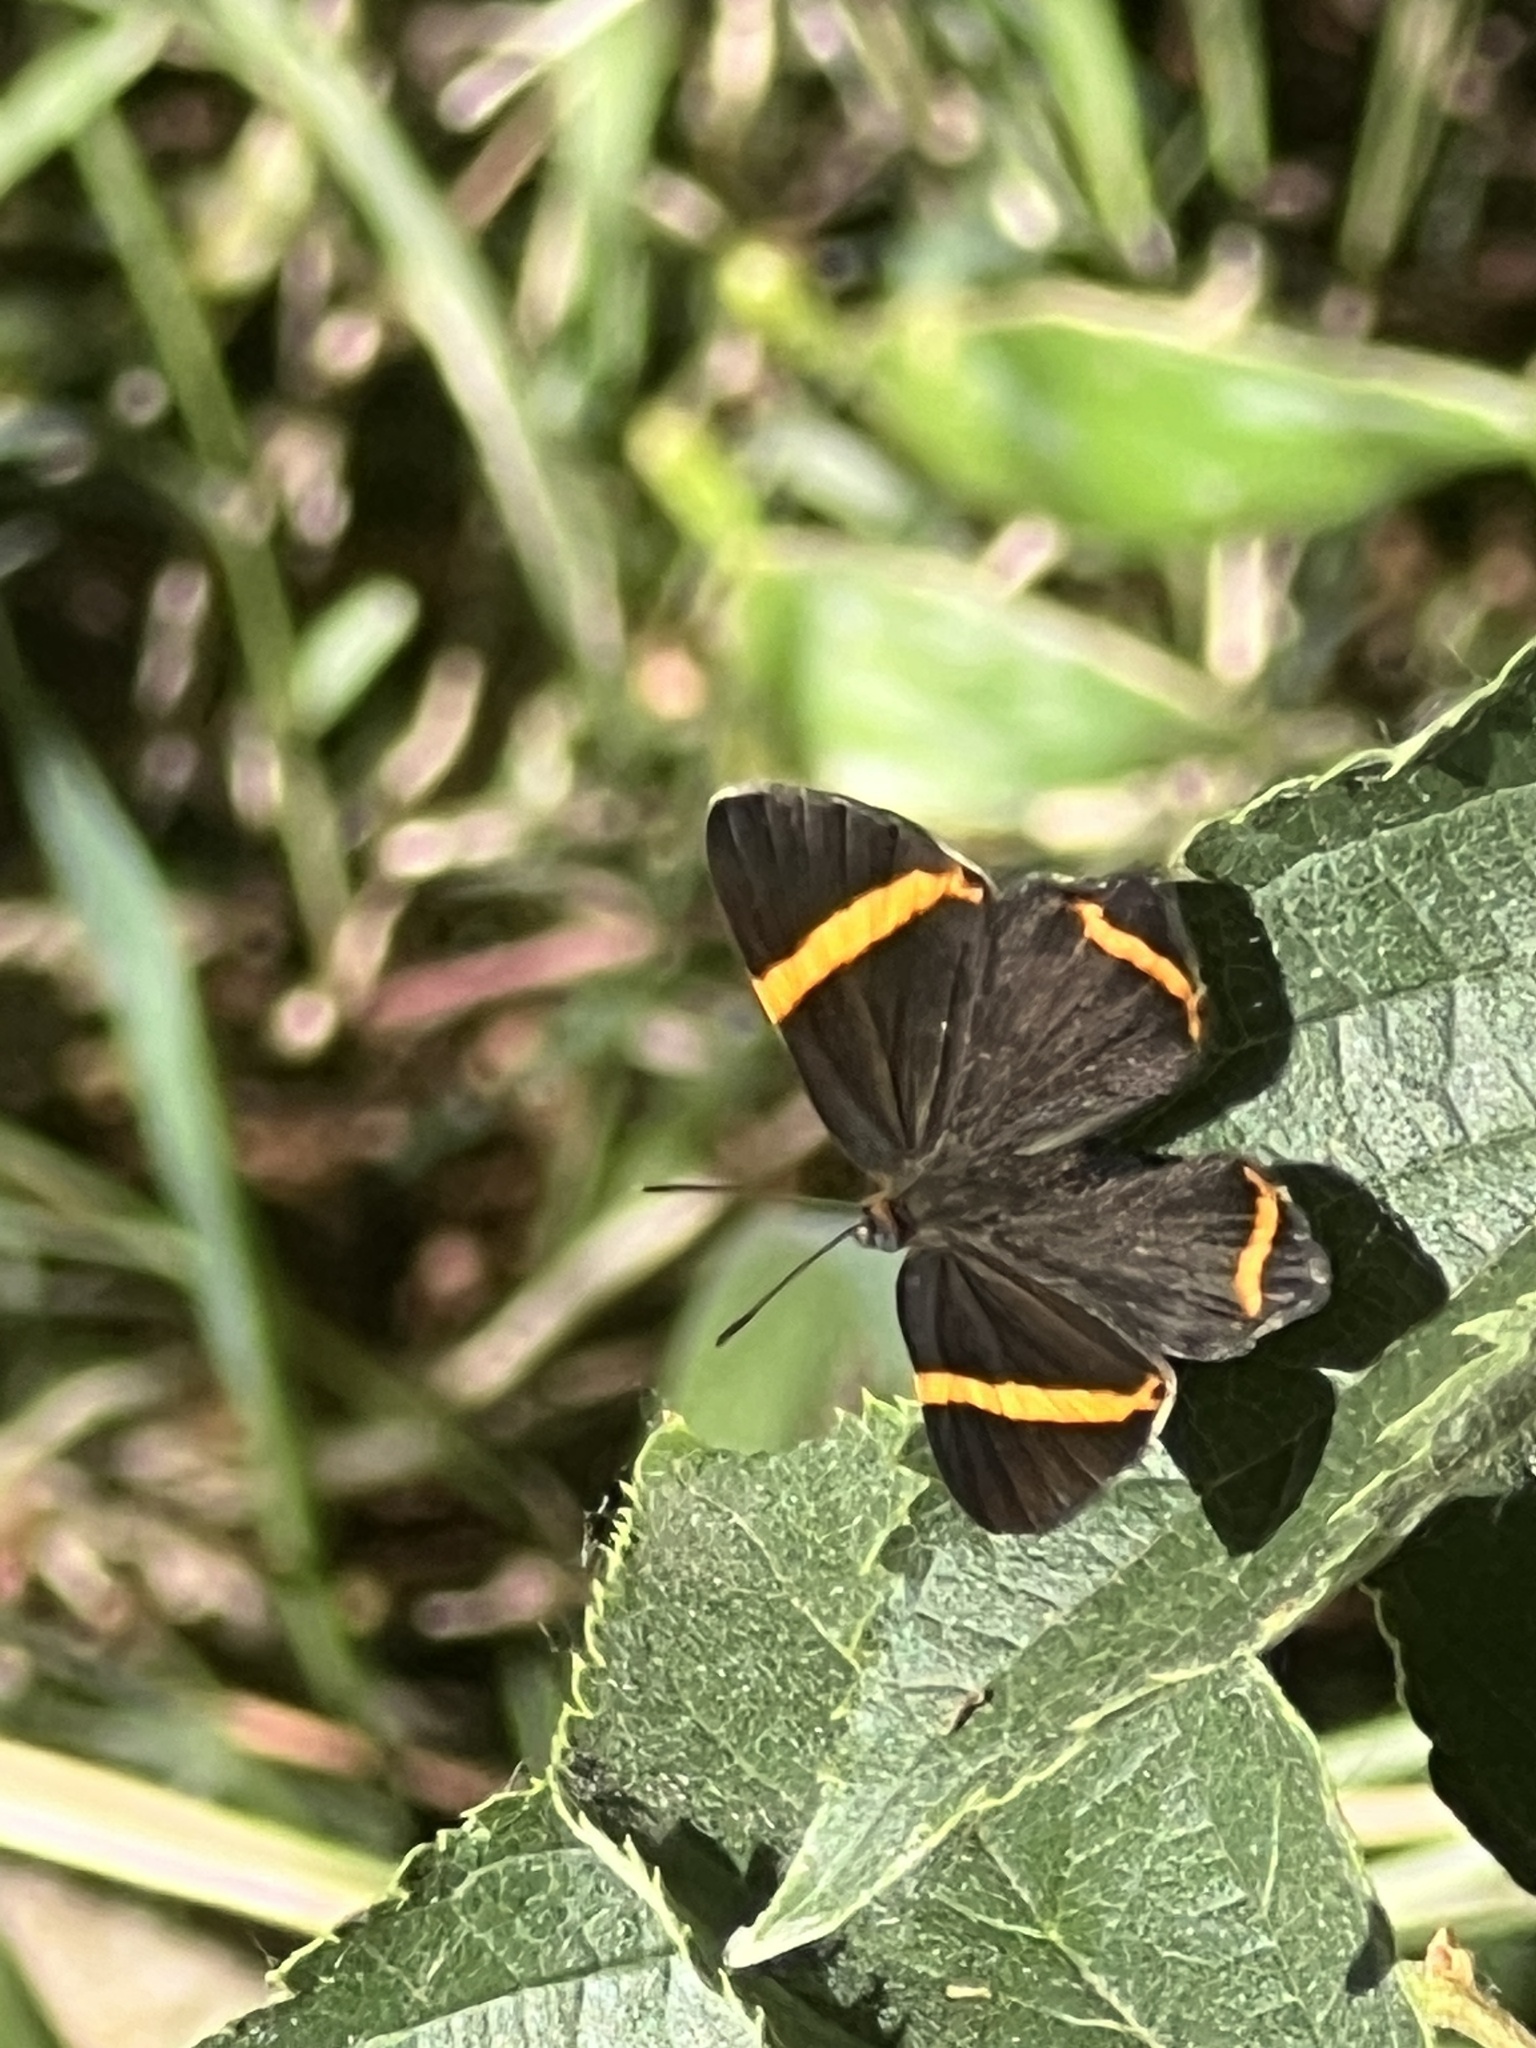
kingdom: Animalia
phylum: Arthropoda
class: Insecta
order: Lepidoptera
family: Riodinidae
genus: Riodina
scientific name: Riodina lysippoides
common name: Little dancer metalmark
